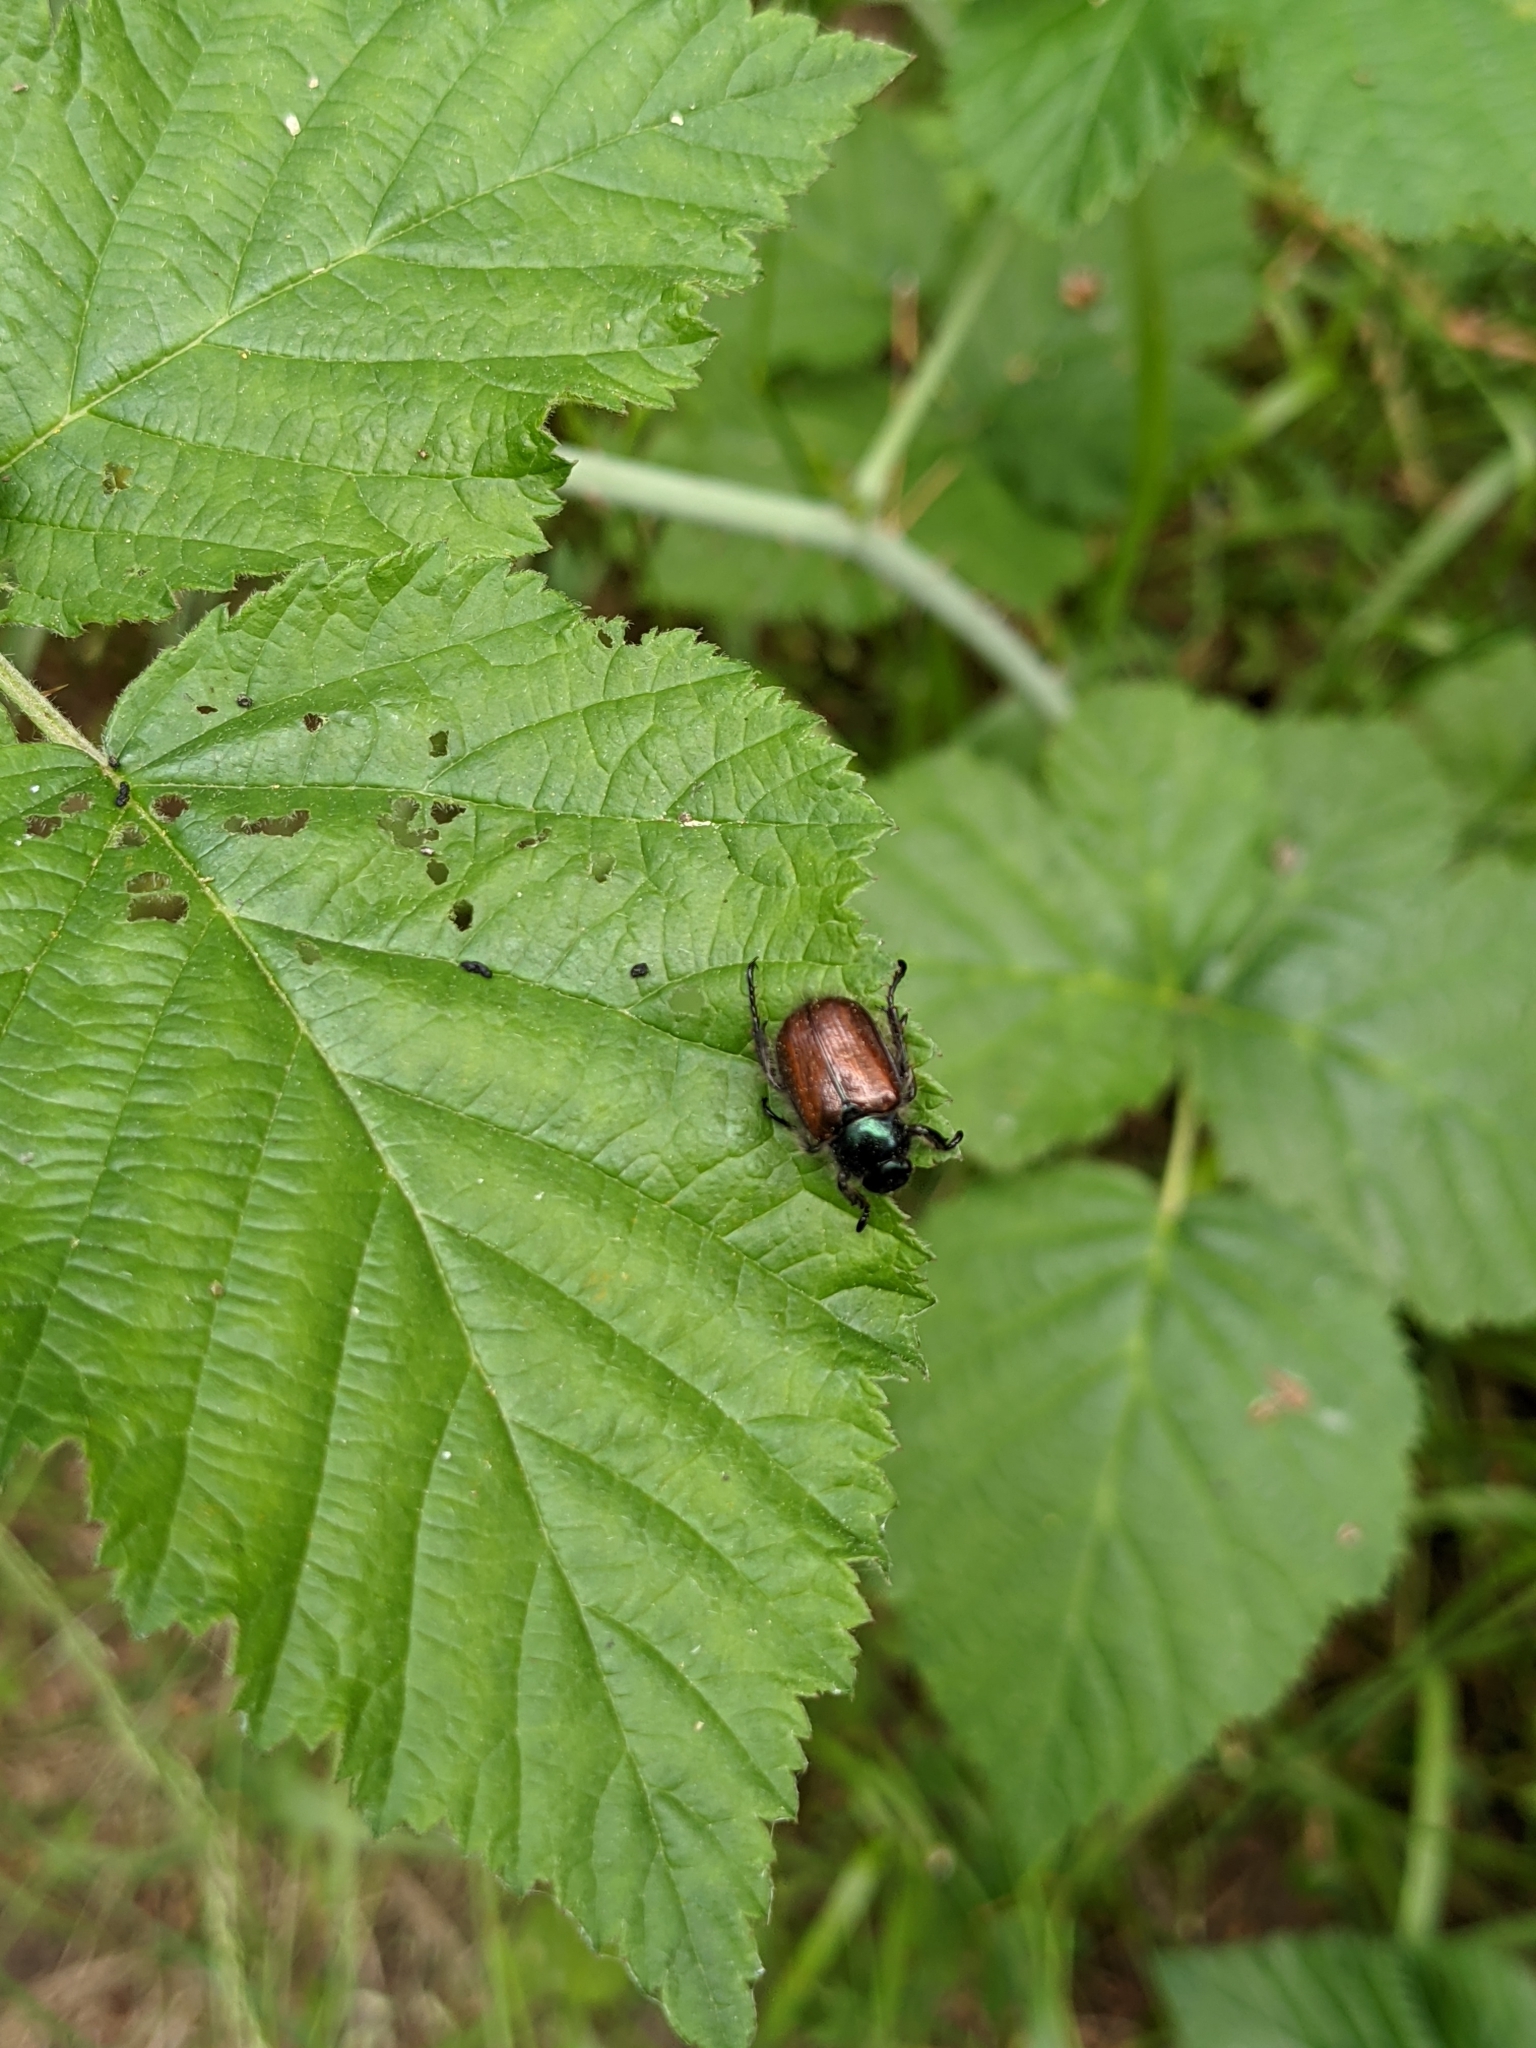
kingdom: Animalia
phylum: Arthropoda
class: Insecta
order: Coleoptera
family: Scarabaeidae
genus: Phyllopertha
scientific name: Phyllopertha horticola
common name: Garden chafer
